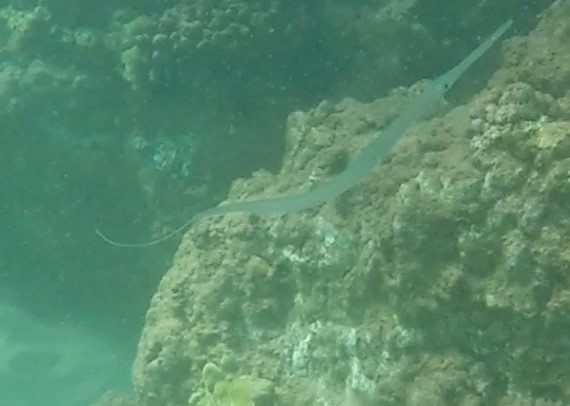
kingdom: Animalia
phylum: Chordata
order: Syngnathiformes
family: Fistulariidae
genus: Fistularia
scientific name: Fistularia commersonii
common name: Bluespotted cornetfish
